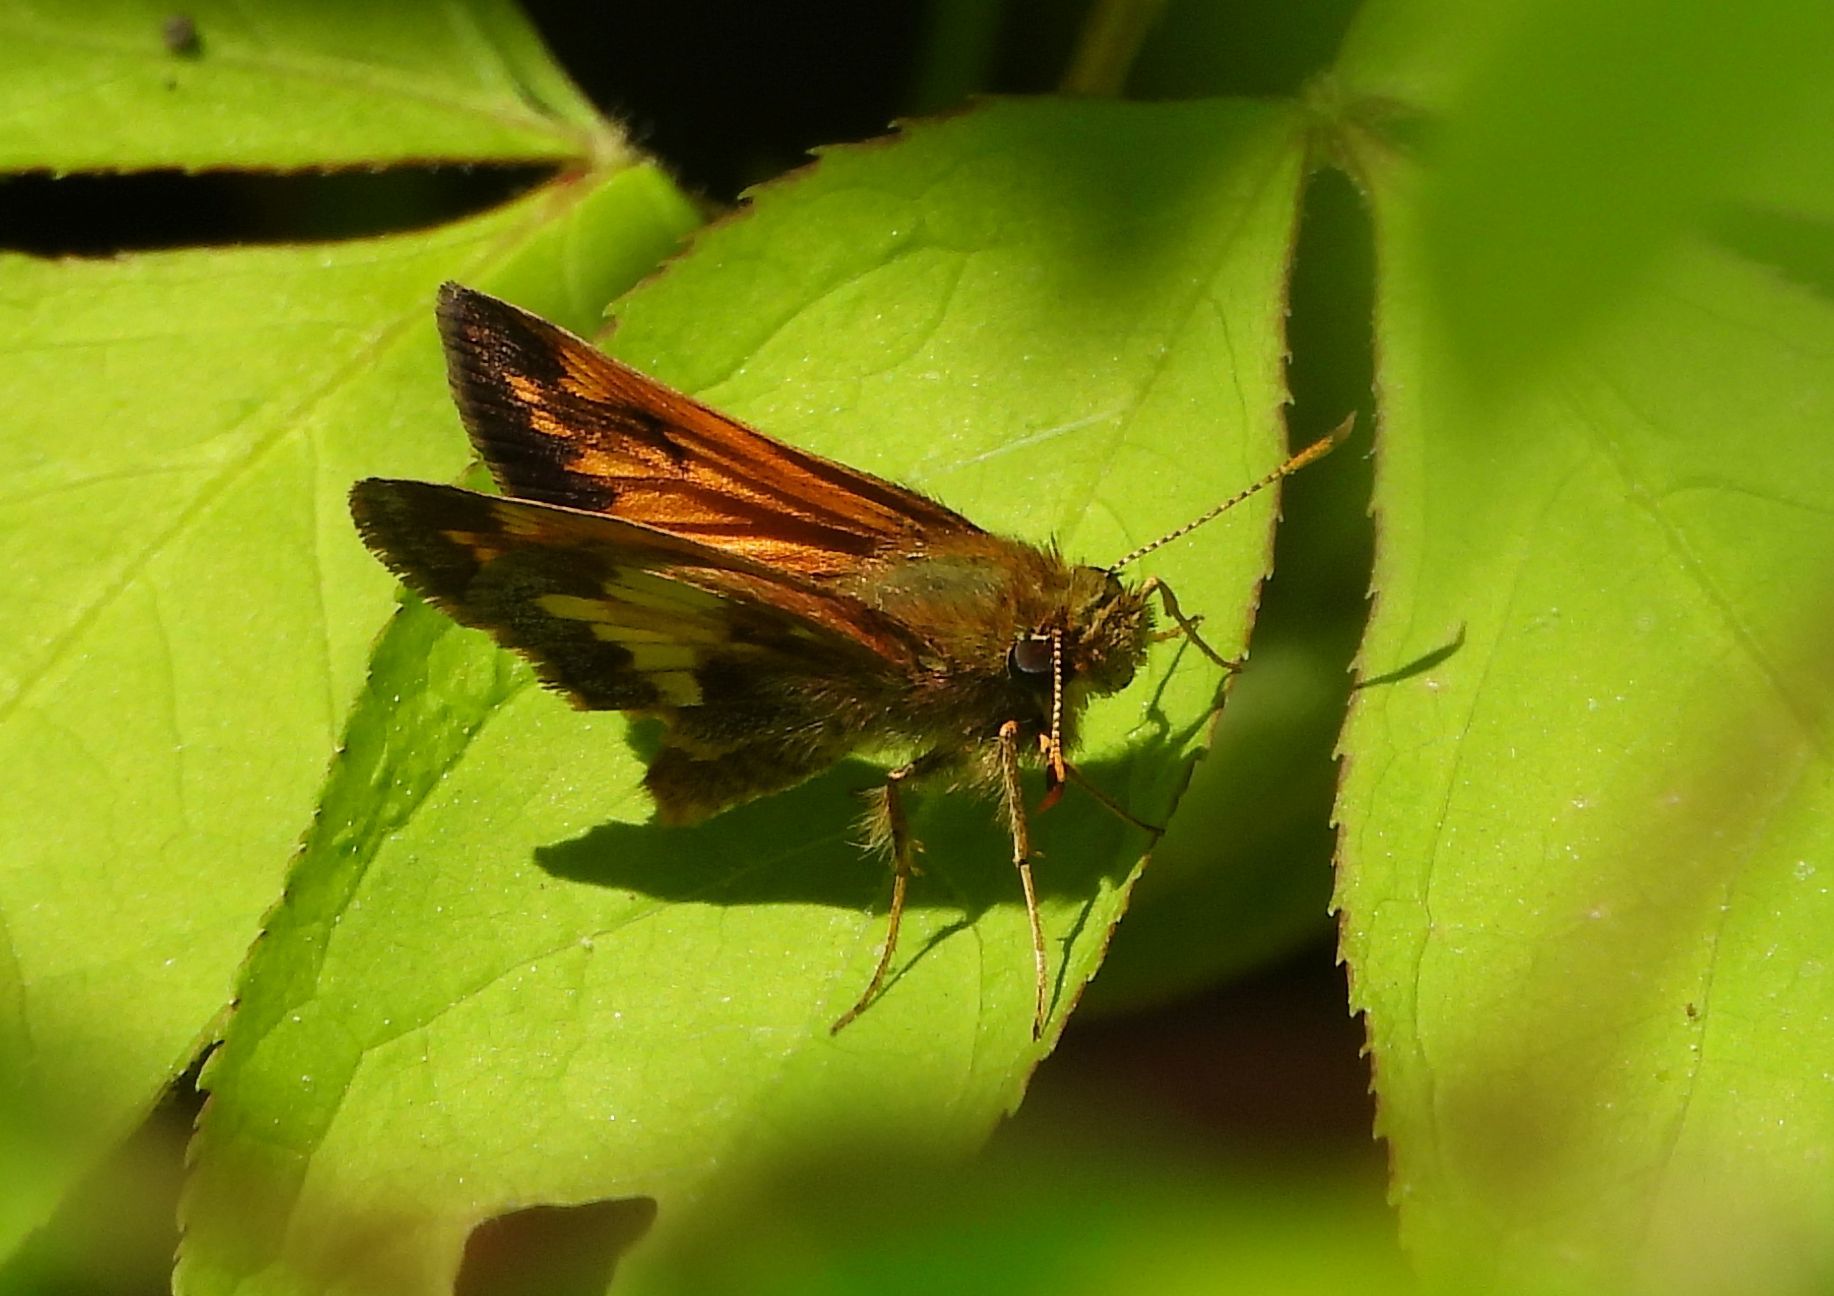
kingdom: Animalia
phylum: Arthropoda
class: Insecta
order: Lepidoptera
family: Hesperiidae
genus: Lon
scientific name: Lon hobomok
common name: Hobomok skipper
